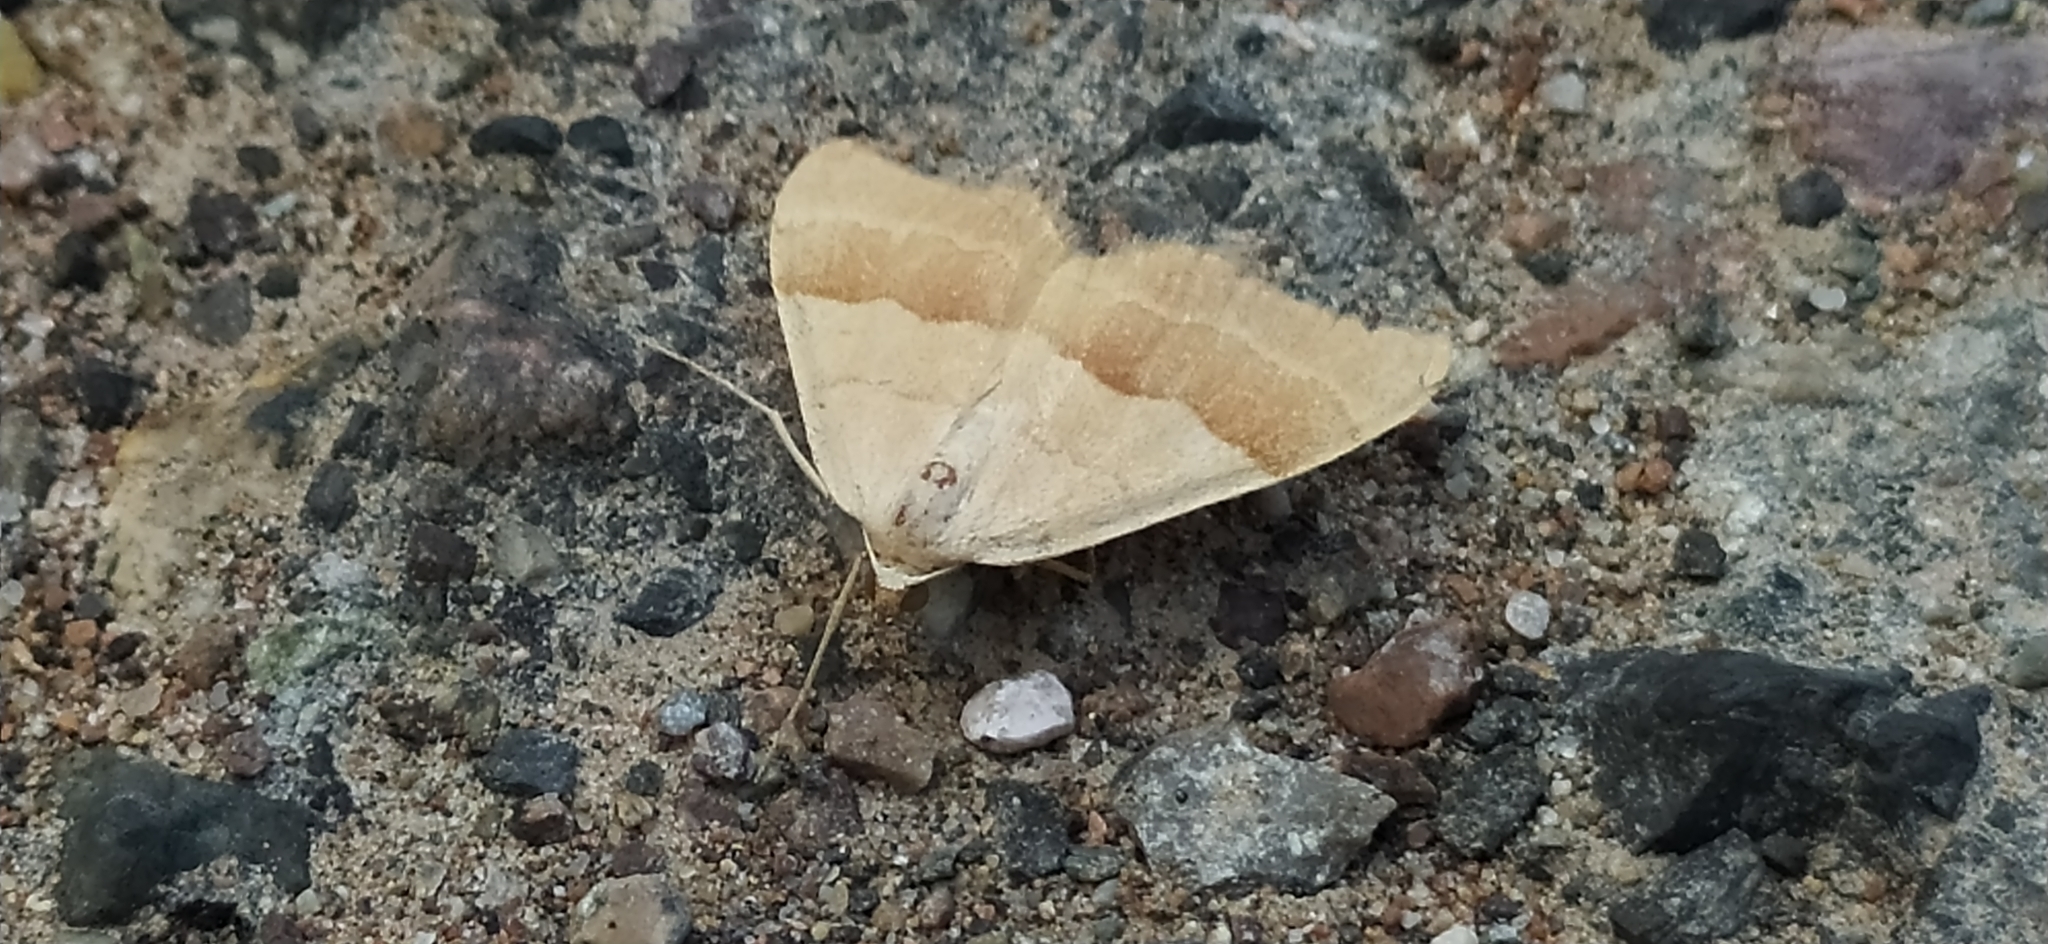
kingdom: Animalia
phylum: Arthropoda
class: Insecta
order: Lepidoptera
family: Geometridae
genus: Rhodostrophia
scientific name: Rhodostrophia staudingeri
